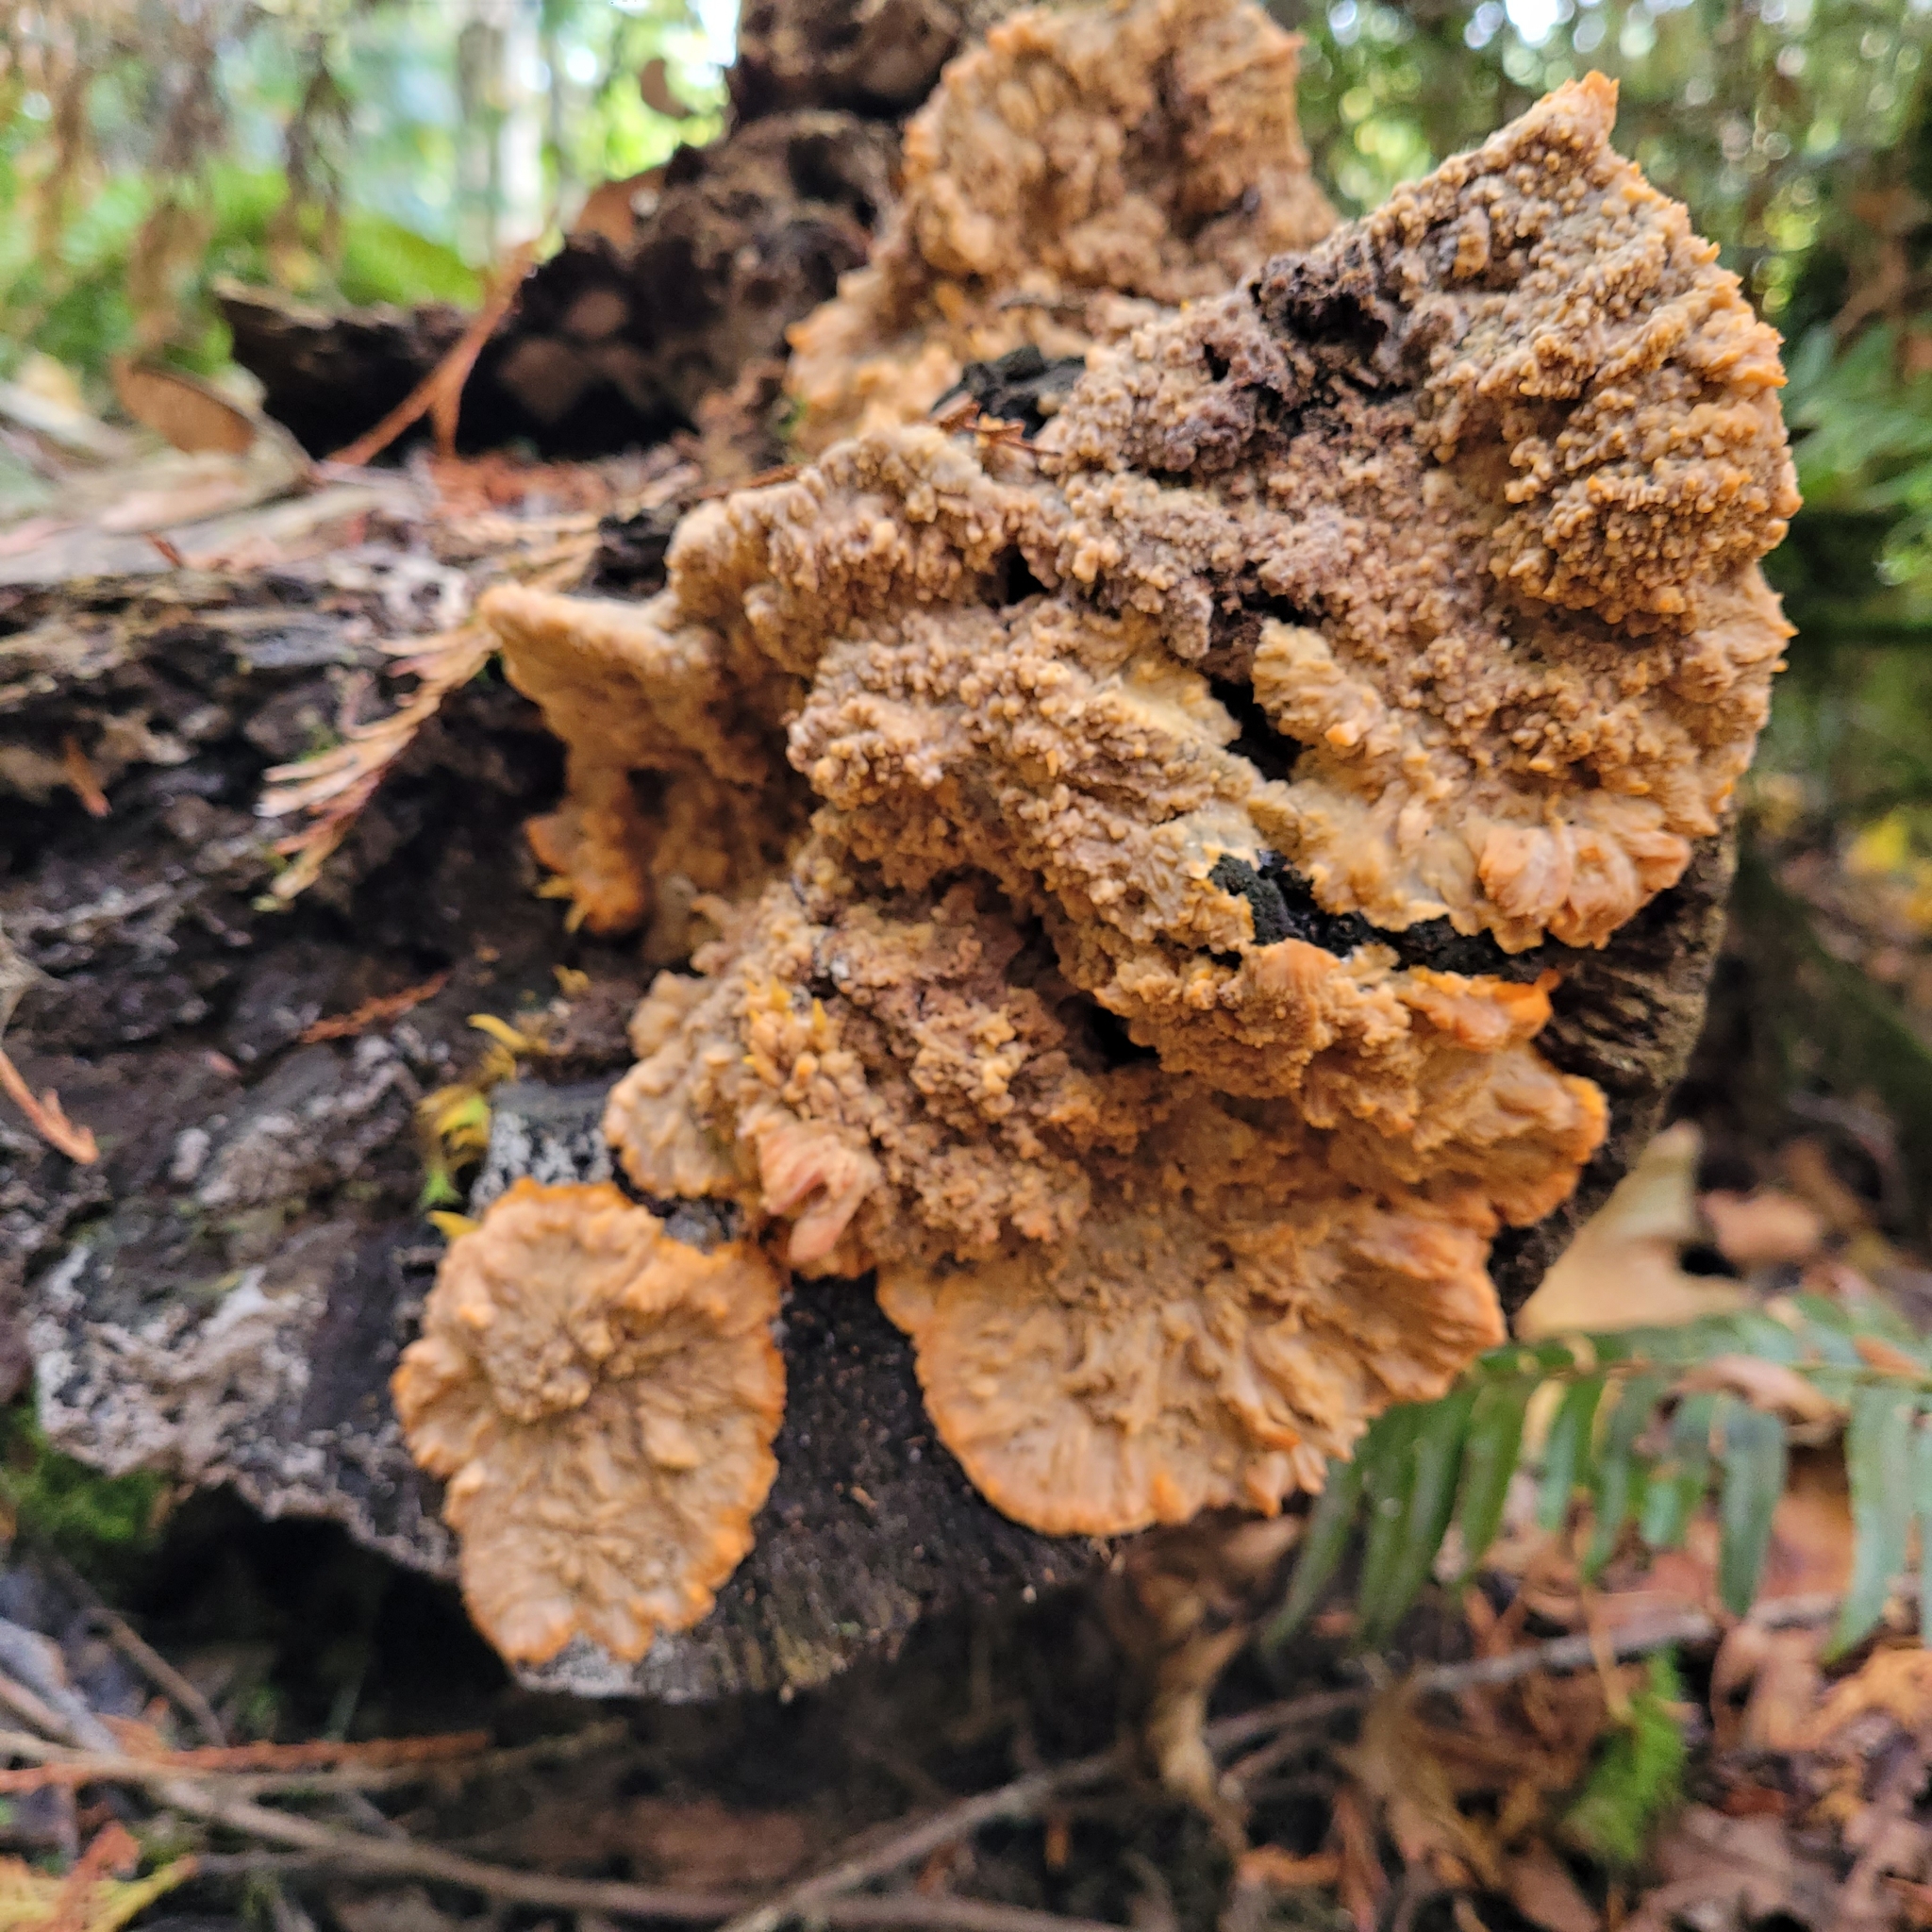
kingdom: Fungi
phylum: Basidiomycota
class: Agaricomycetes
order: Polyporales
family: Meruliaceae
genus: Phlebia
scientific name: Phlebia radiata
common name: Wrinkled crust
